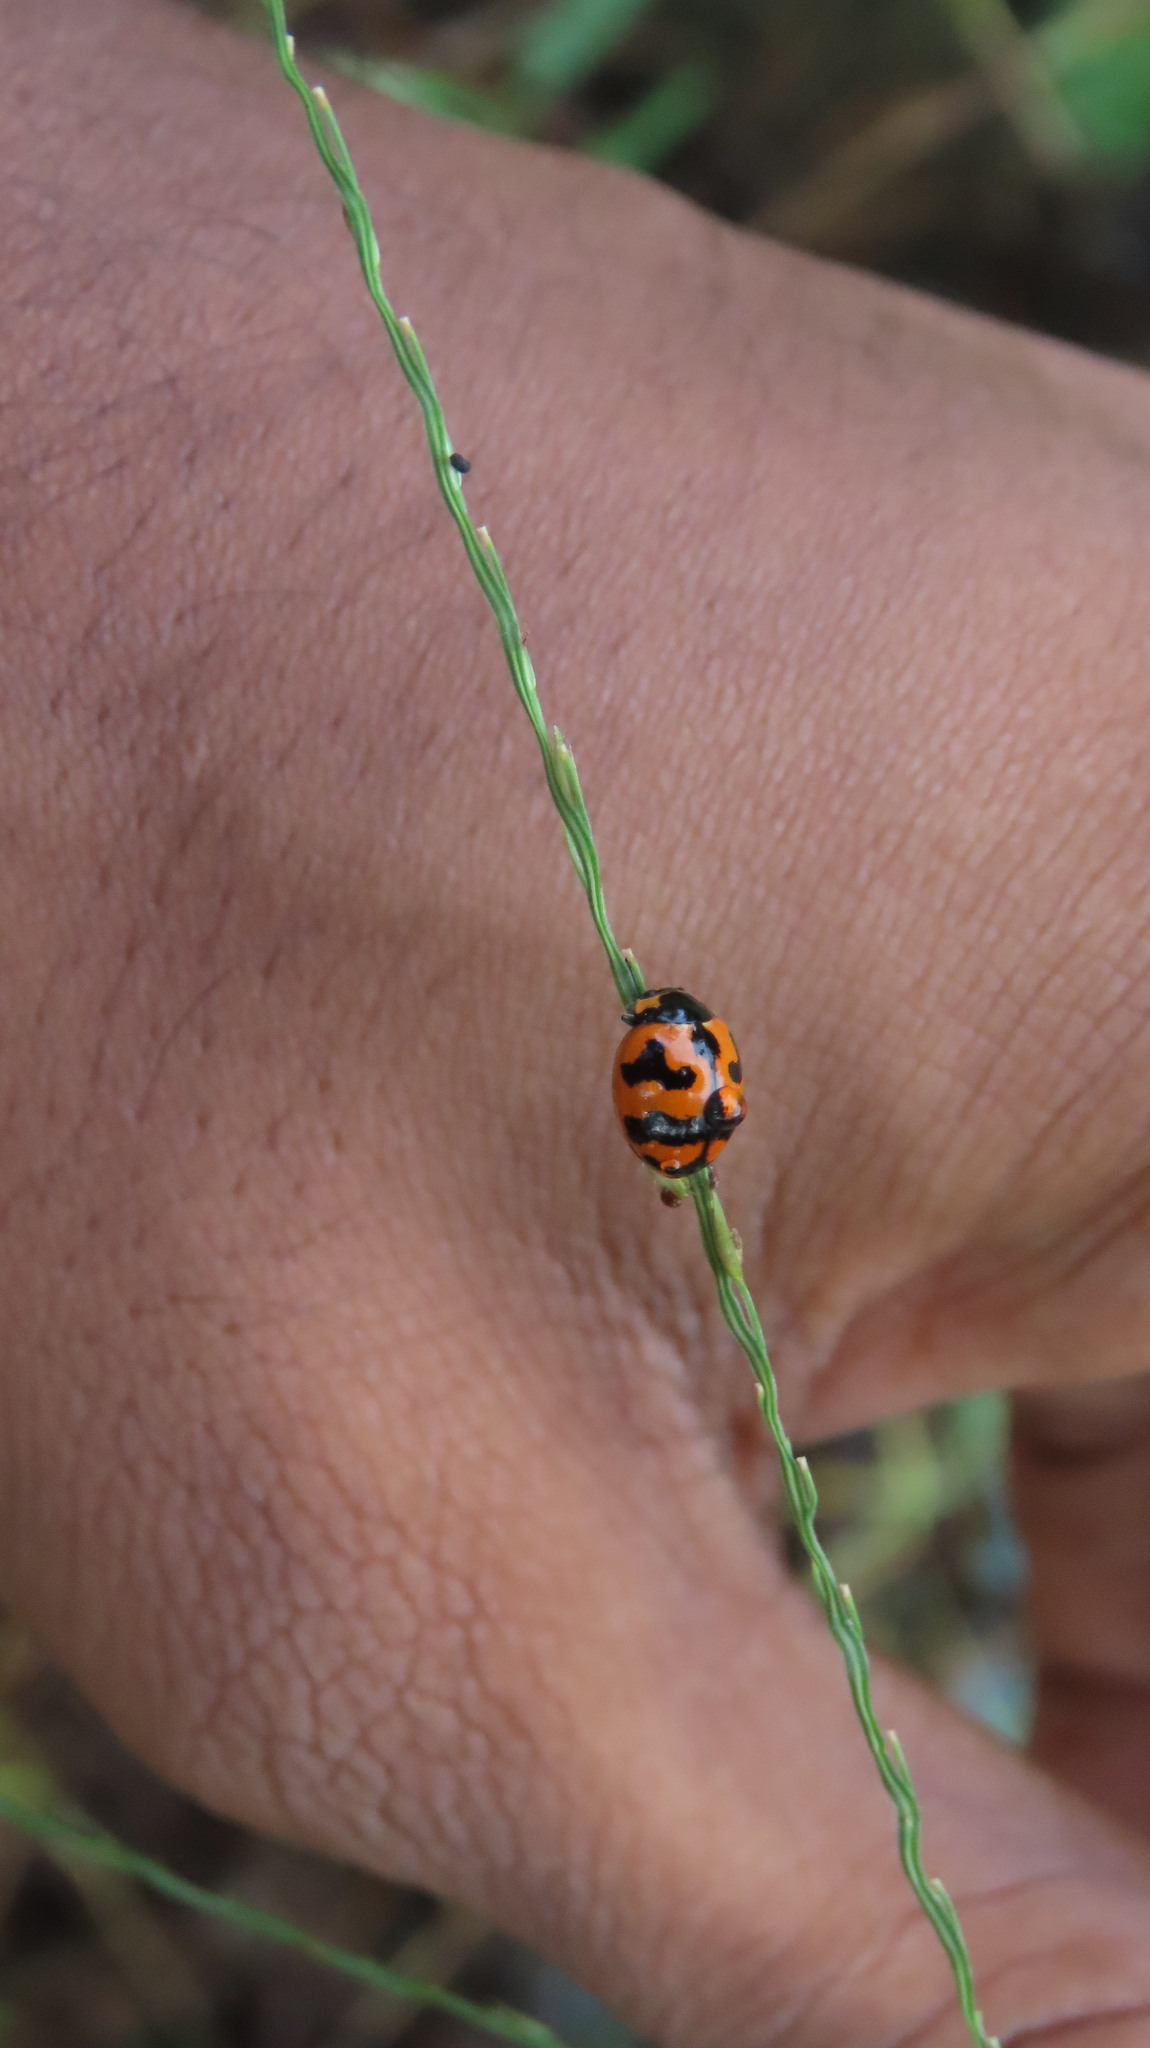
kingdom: Animalia
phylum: Arthropoda
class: Insecta
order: Coleoptera
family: Coccinellidae
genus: Coccinella
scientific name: Coccinella transversalis
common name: Transverse lady beetle
